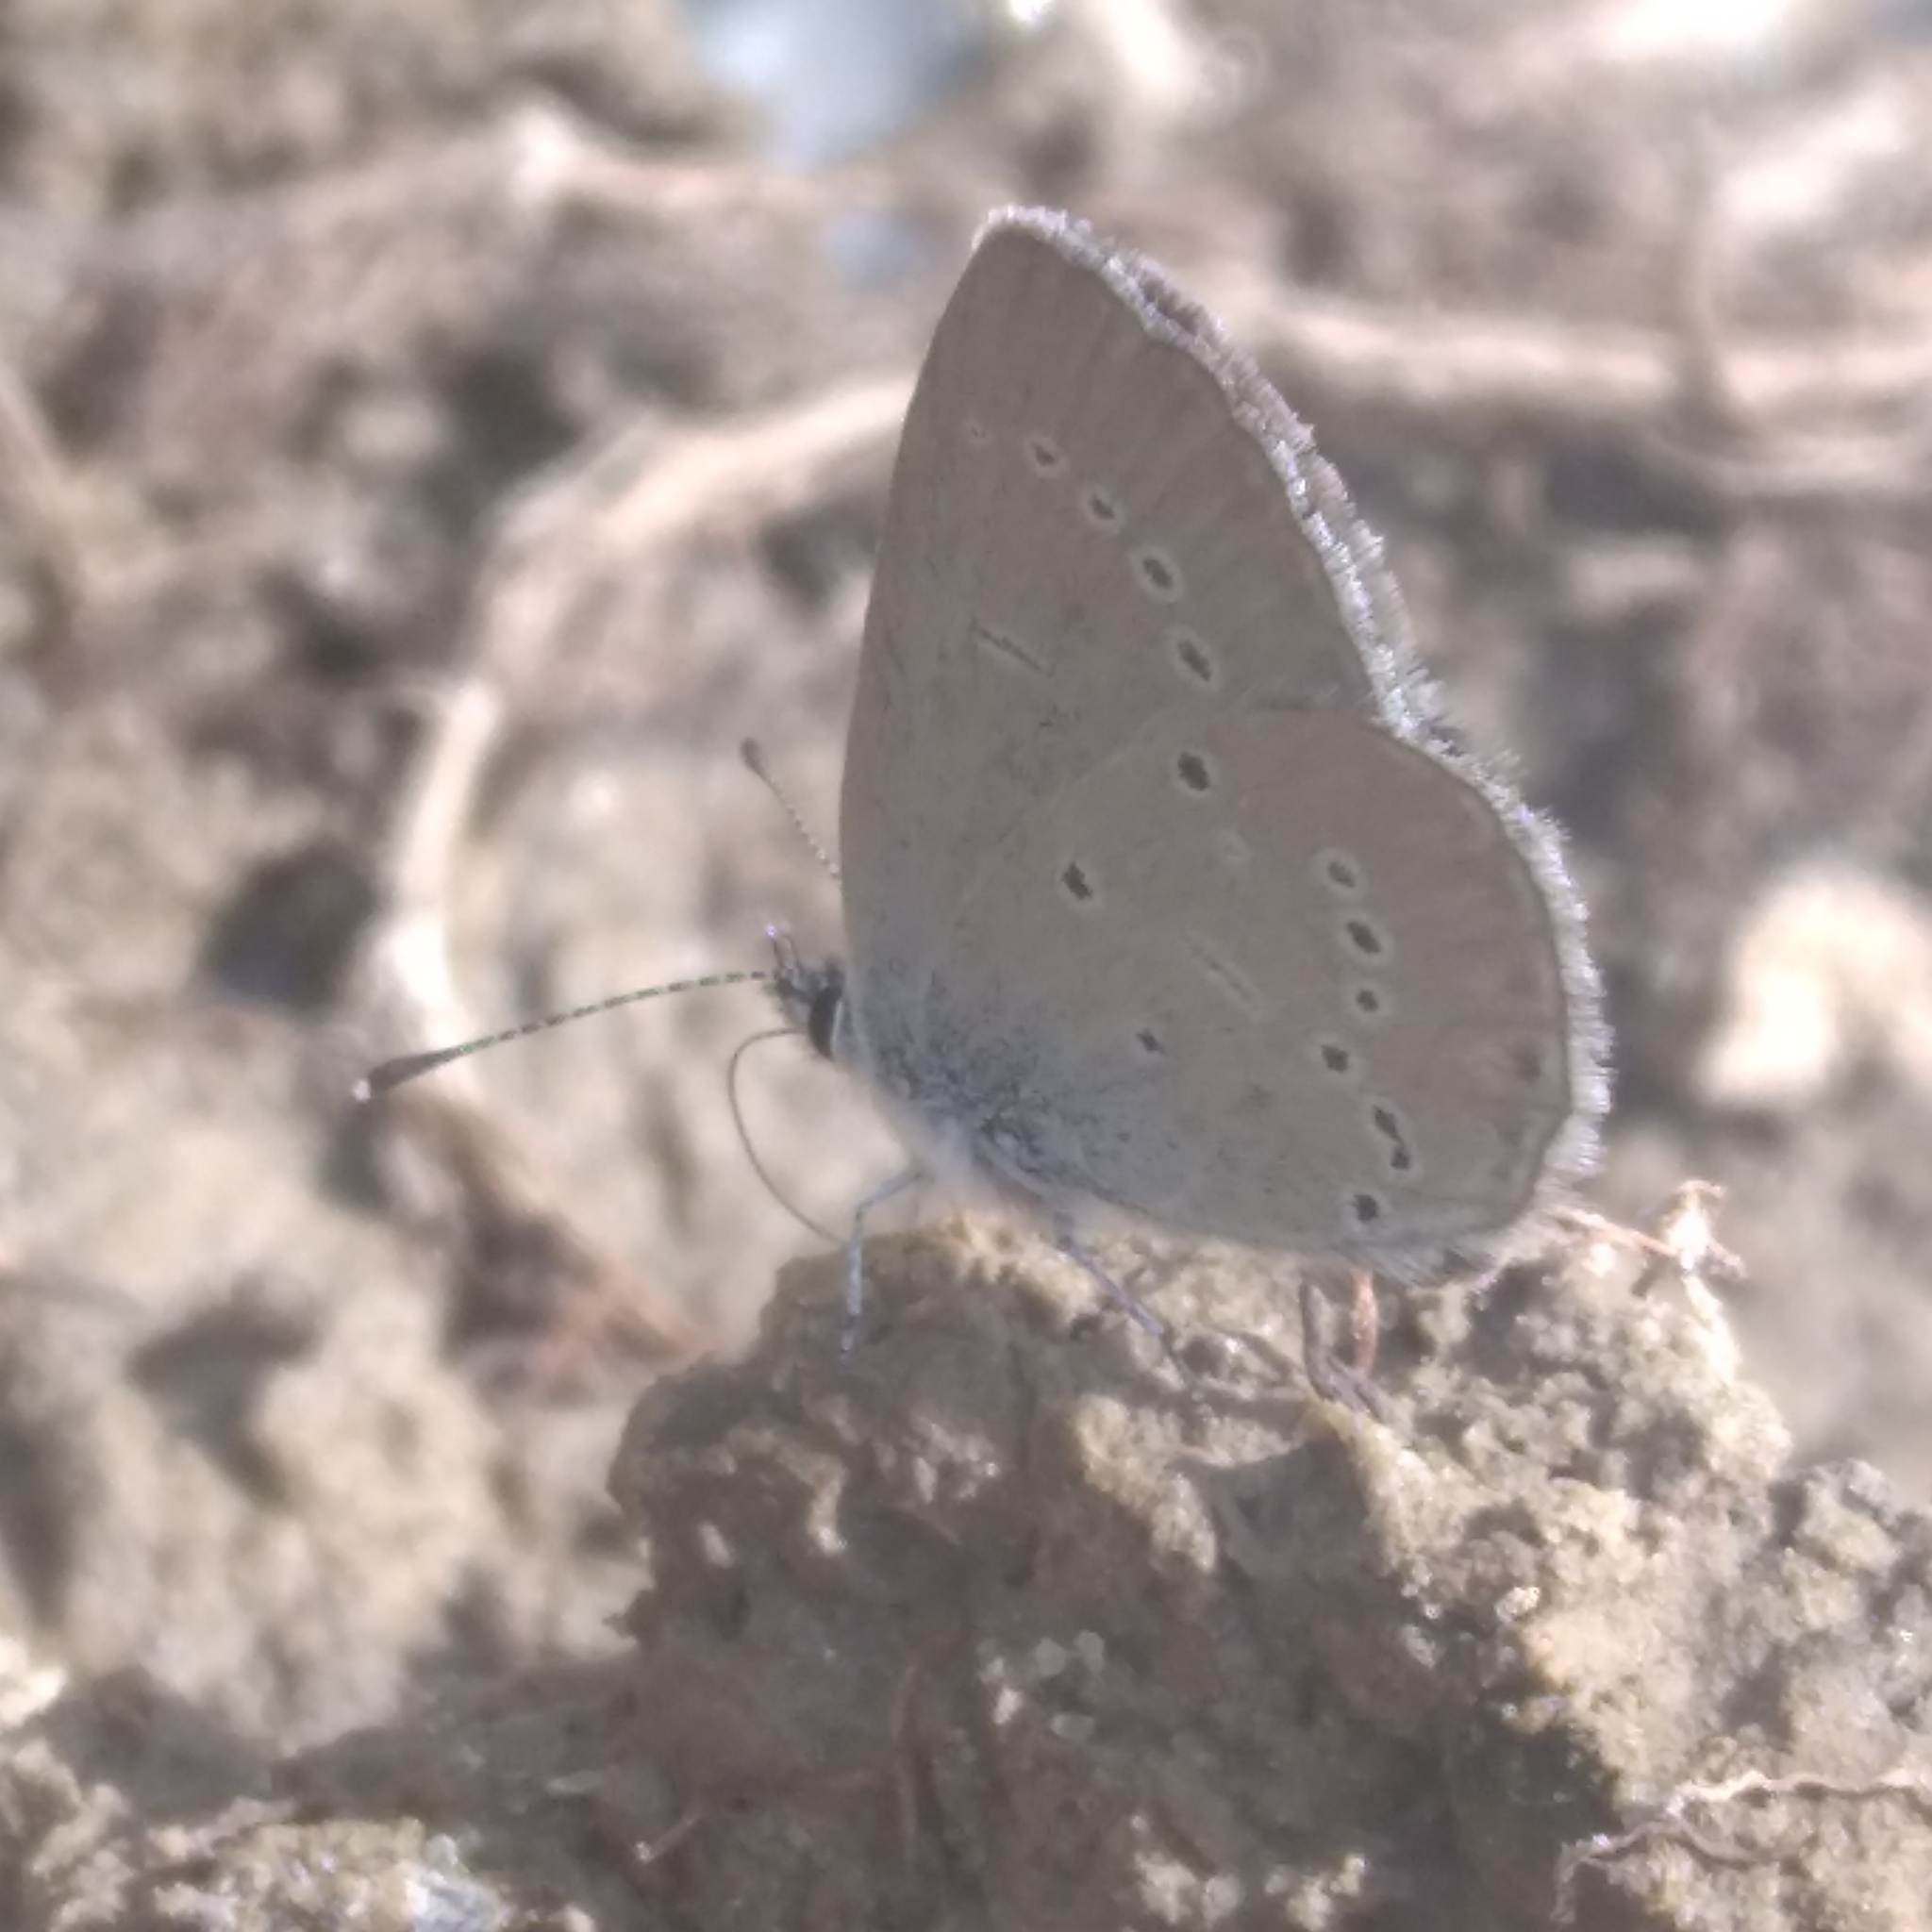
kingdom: Animalia
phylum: Arthropoda
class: Insecta
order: Lepidoptera
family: Lycaenidae
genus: Cupido
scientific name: Cupido minimus
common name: Small blue
